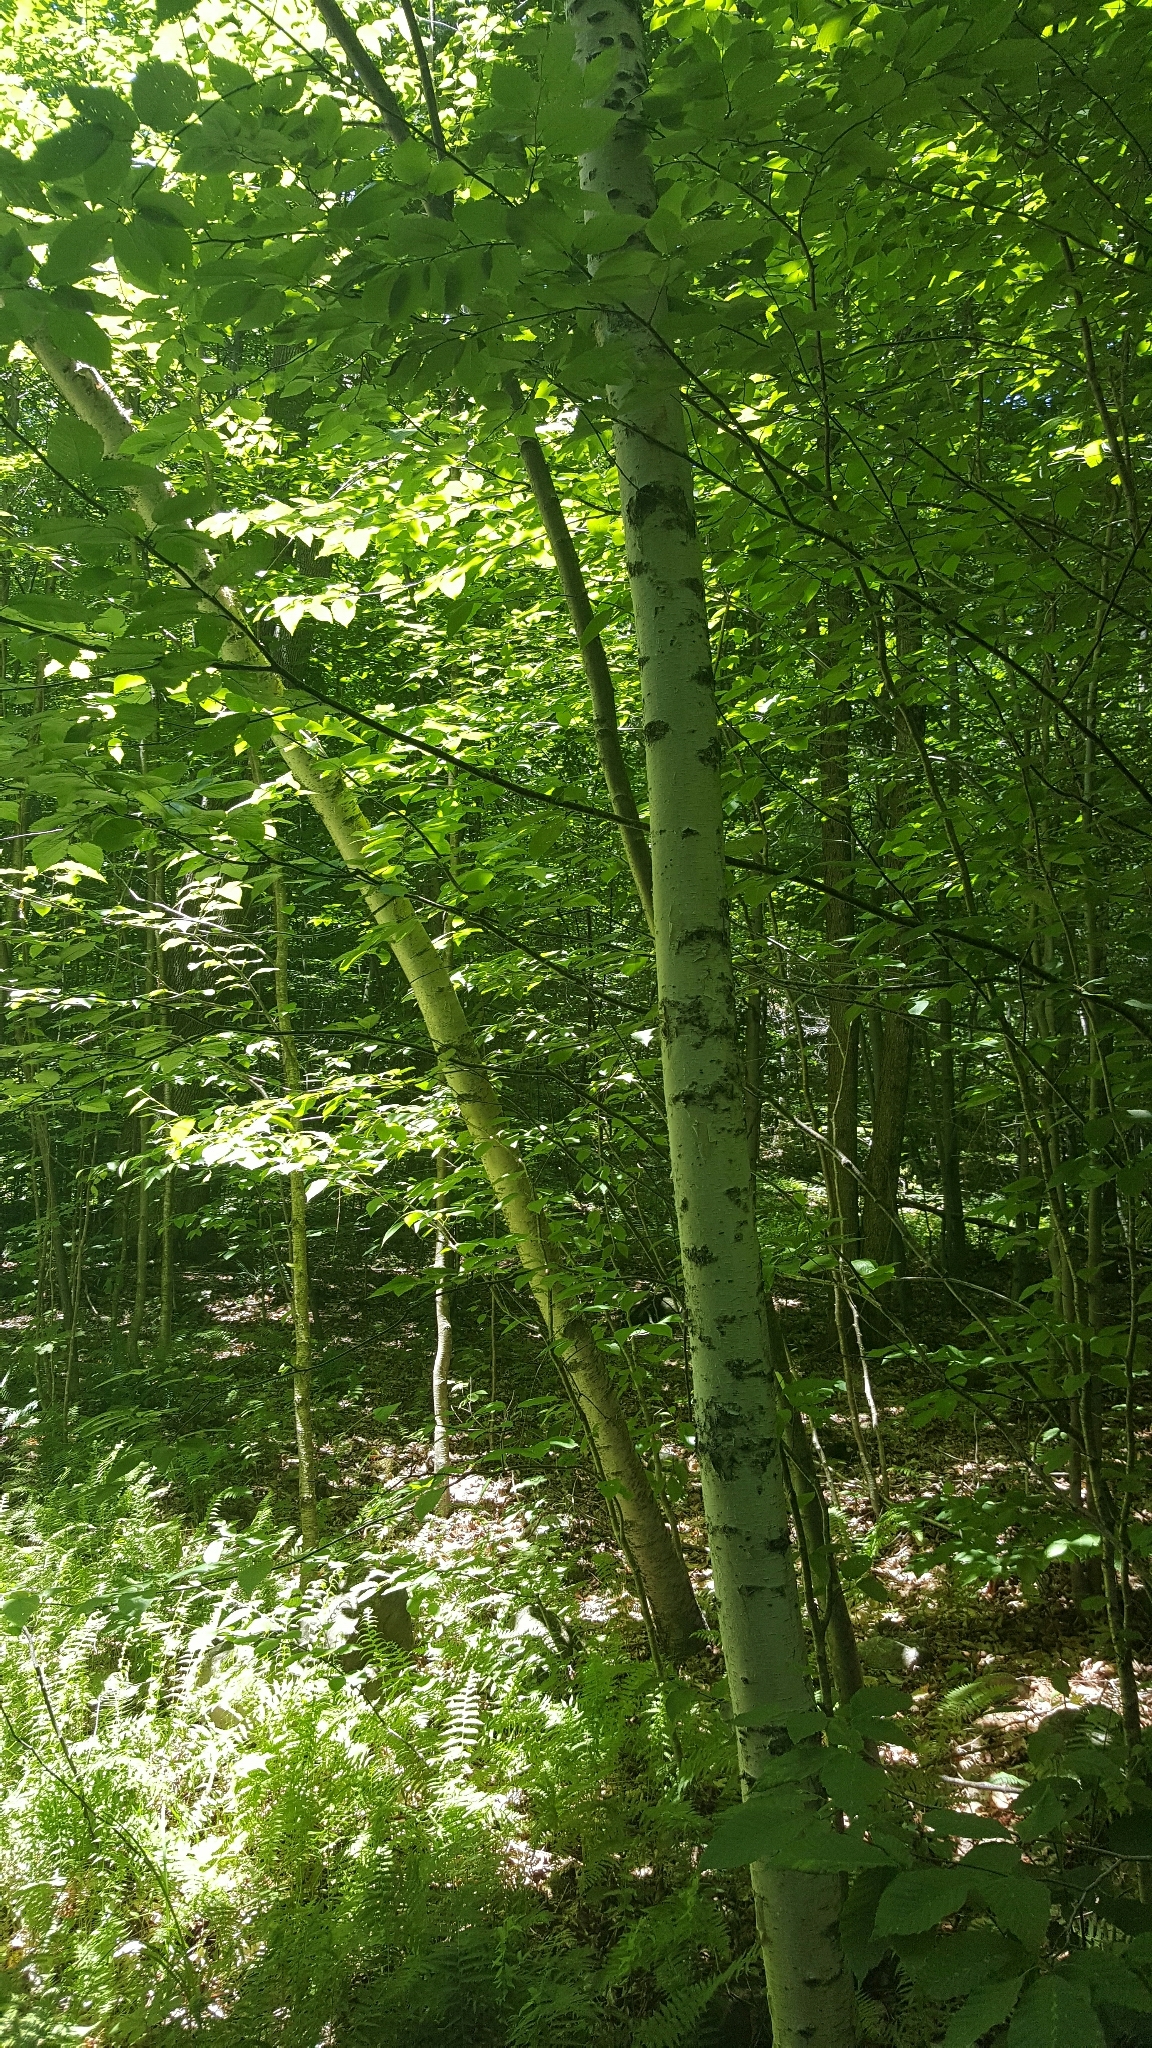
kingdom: Plantae
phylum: Tracheophyta
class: Magnoliopsida
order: Fagales
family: Betulaceae
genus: Betula
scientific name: Betula papyrifera
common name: Paper birch
